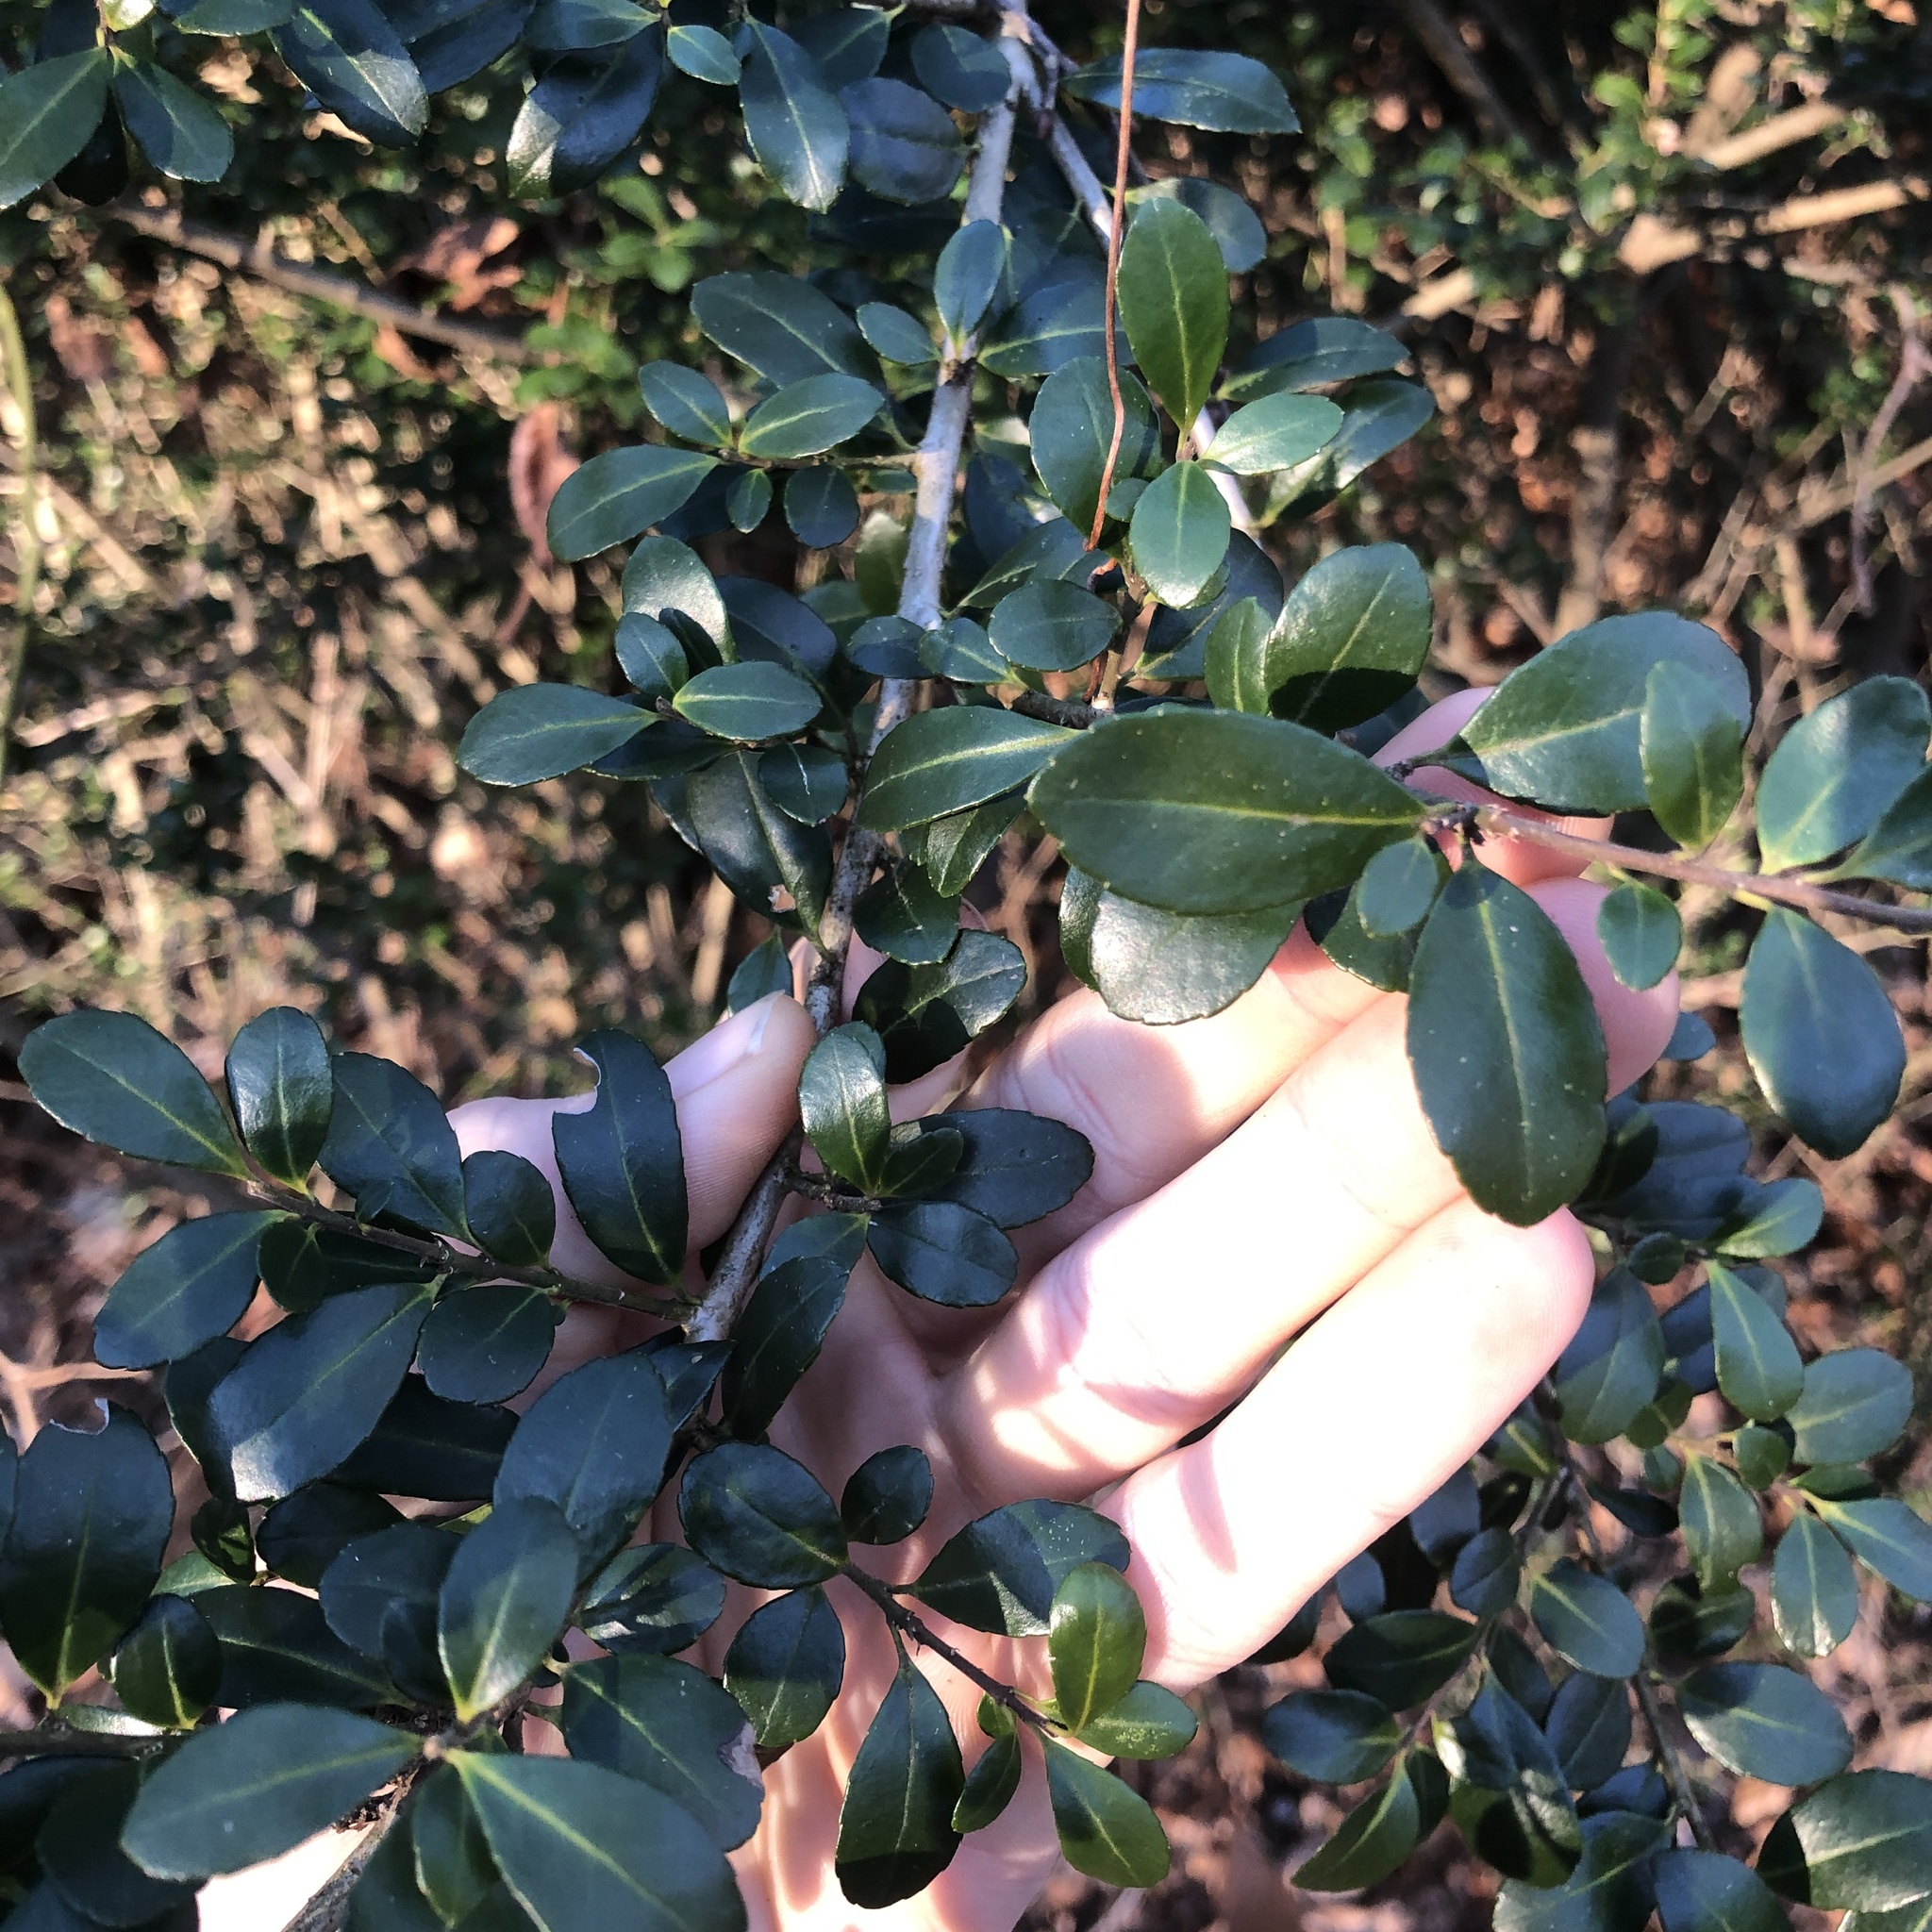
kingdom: Plantae
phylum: Tracheophyta
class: Magnoliopsida
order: Aquifoliales
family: Aquifoliaceae
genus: Ilex
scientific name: Ilex crenata
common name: Japanese holly
